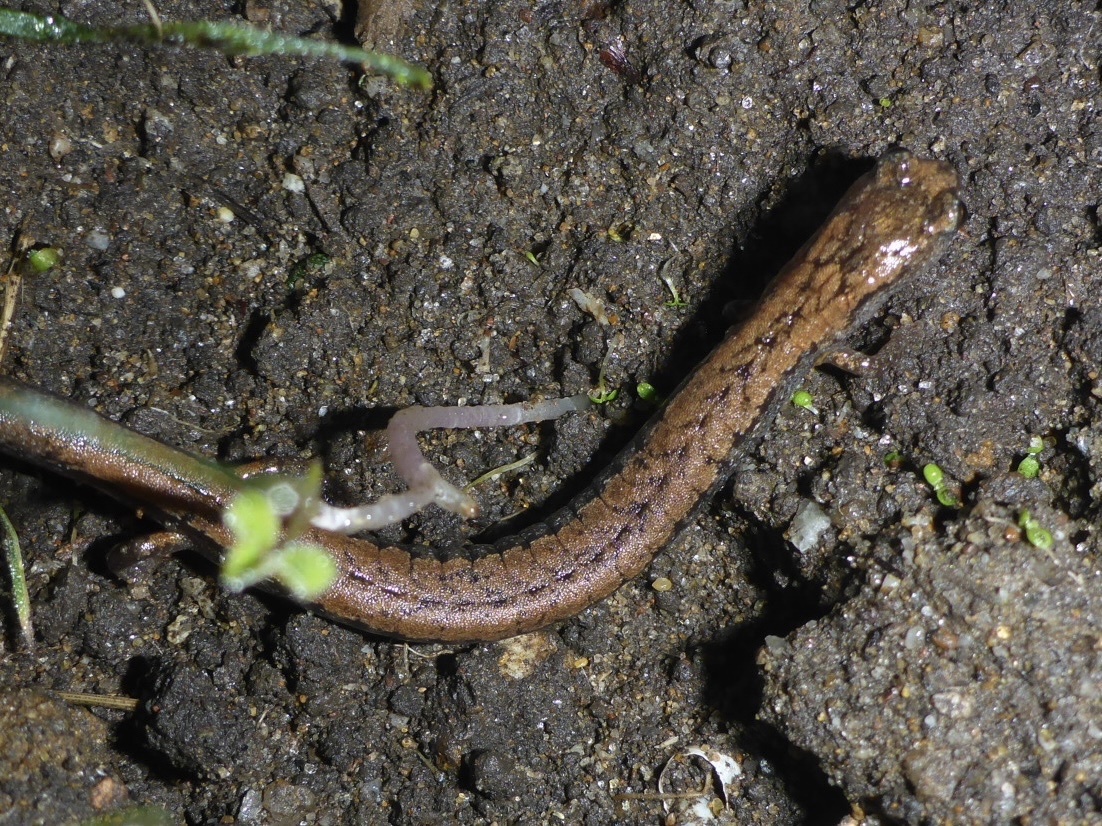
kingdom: Animalia
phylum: Chordata
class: Amphibia
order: Caudata
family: Plethodontidae
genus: Batrachoseps
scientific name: Batrachoseps attenuatus
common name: California slender salamander
